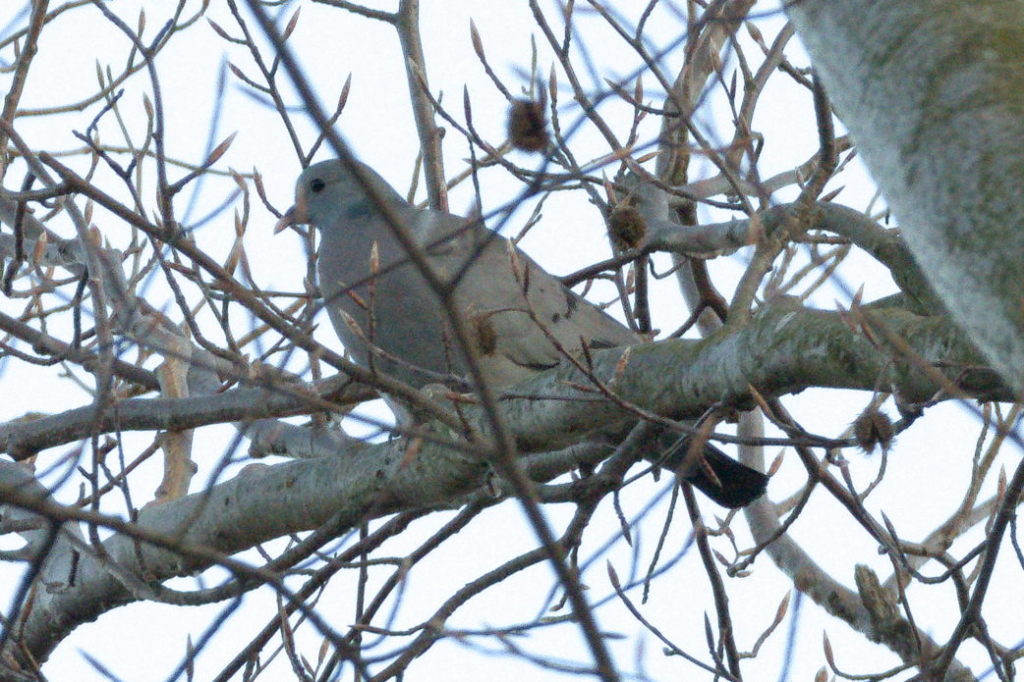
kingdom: Animalia
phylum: Chordata
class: Aves
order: Columbiformes
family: Columbidae
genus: Columba
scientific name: Columba oenas
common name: Stock dove
